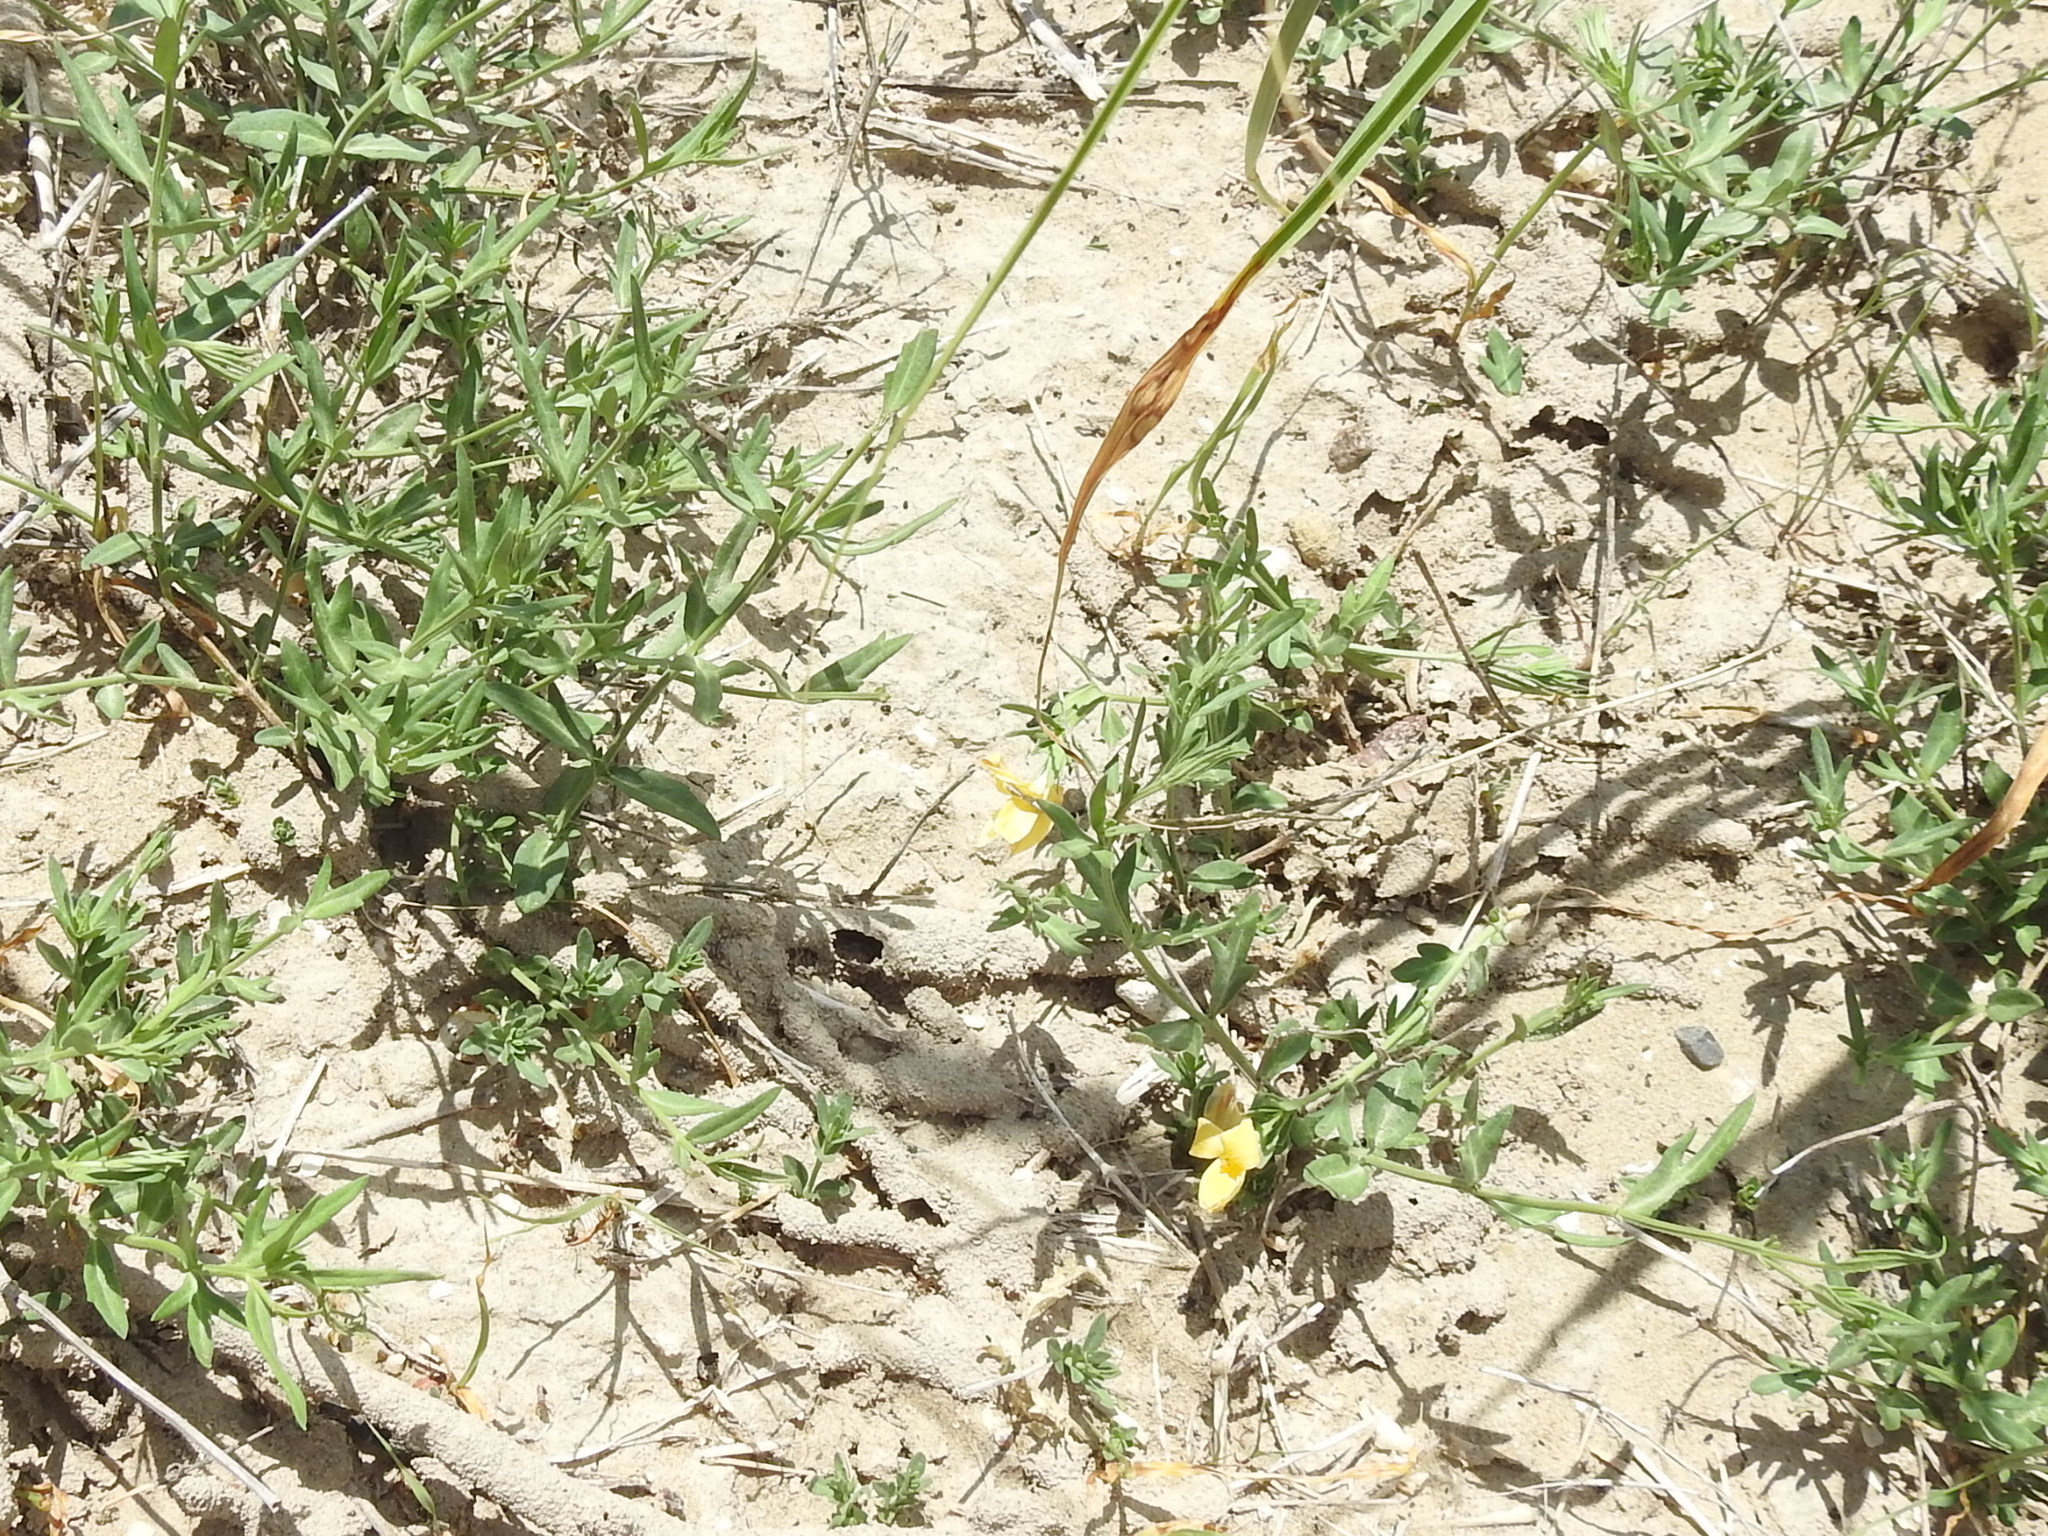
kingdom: Plantae
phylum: Tracheophyta
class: Magnoliopsida
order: Lamiales
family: Oleaceae
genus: Menodora
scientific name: Menodora heterophylla
